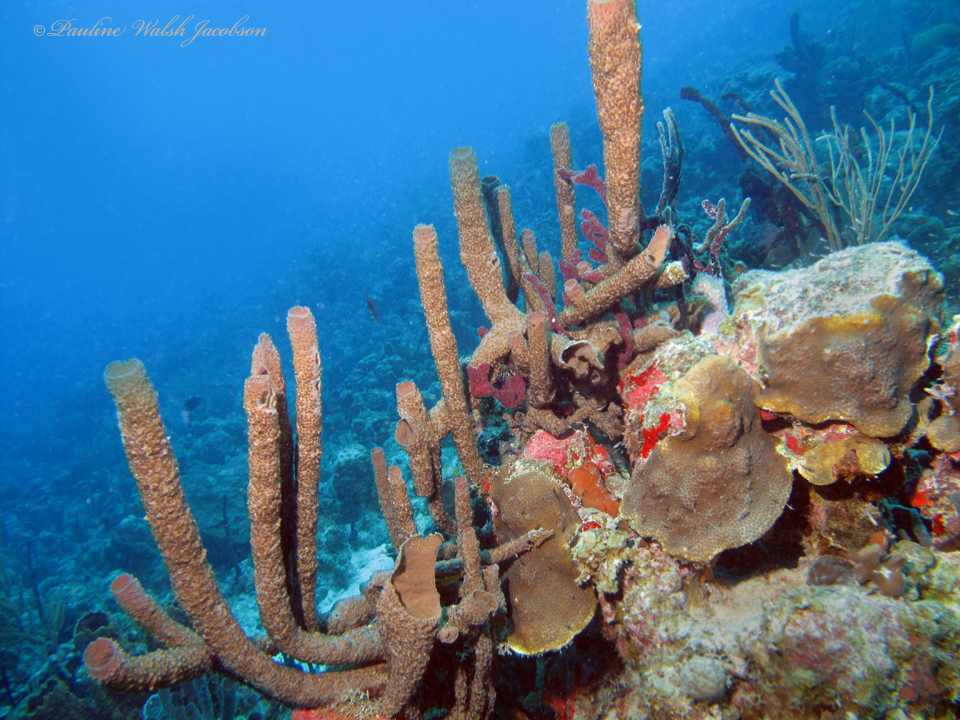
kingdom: Animalia
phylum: Porifera
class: Demospongiae
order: Haplosclerida
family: Callyspongiidae
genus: Callyspongia
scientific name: Callyspongia aculeata
